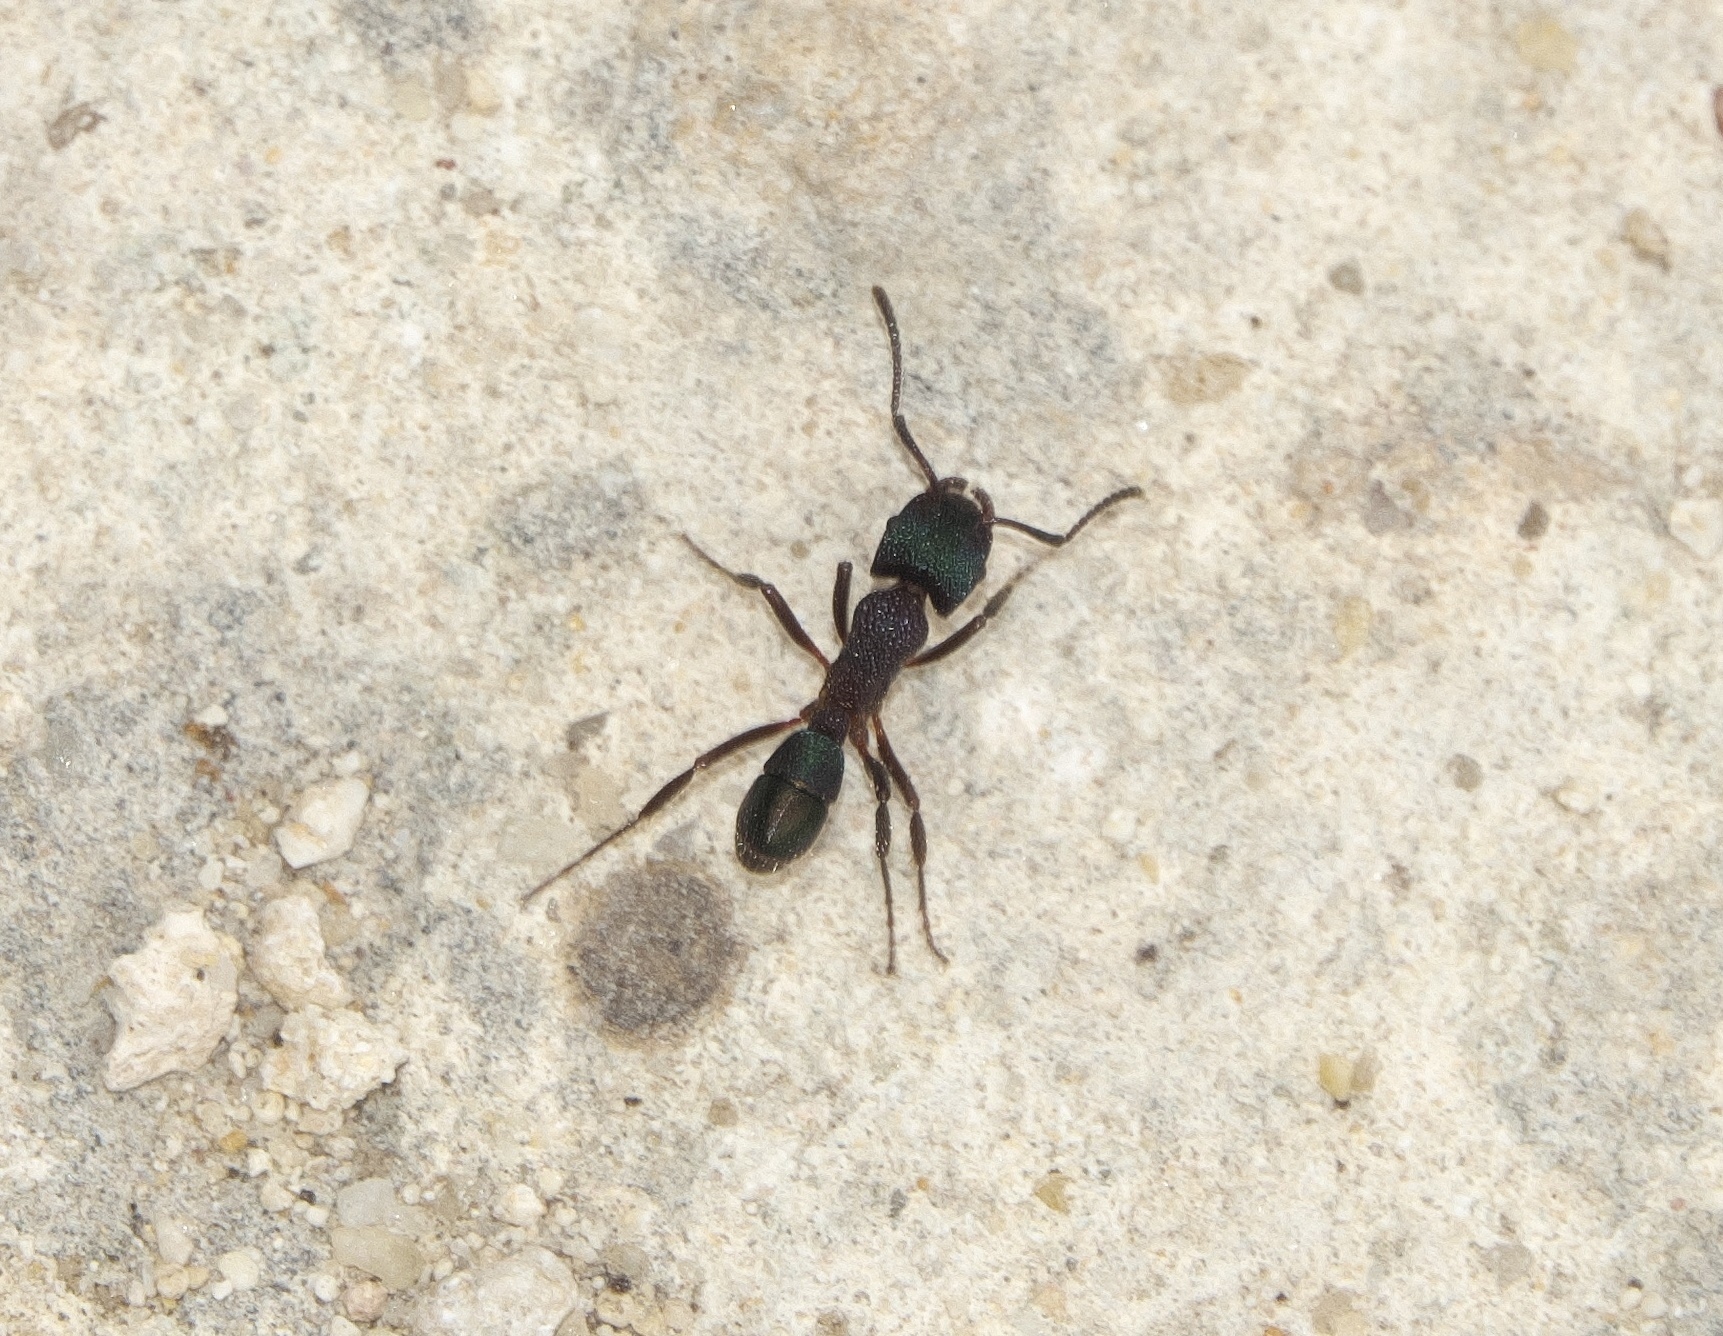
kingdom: Animalia
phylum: Arthropoda
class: Insecta
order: Hymenoptera
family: Formicidae
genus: Rhytidoponera
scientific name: Rhytidoponera metallica
